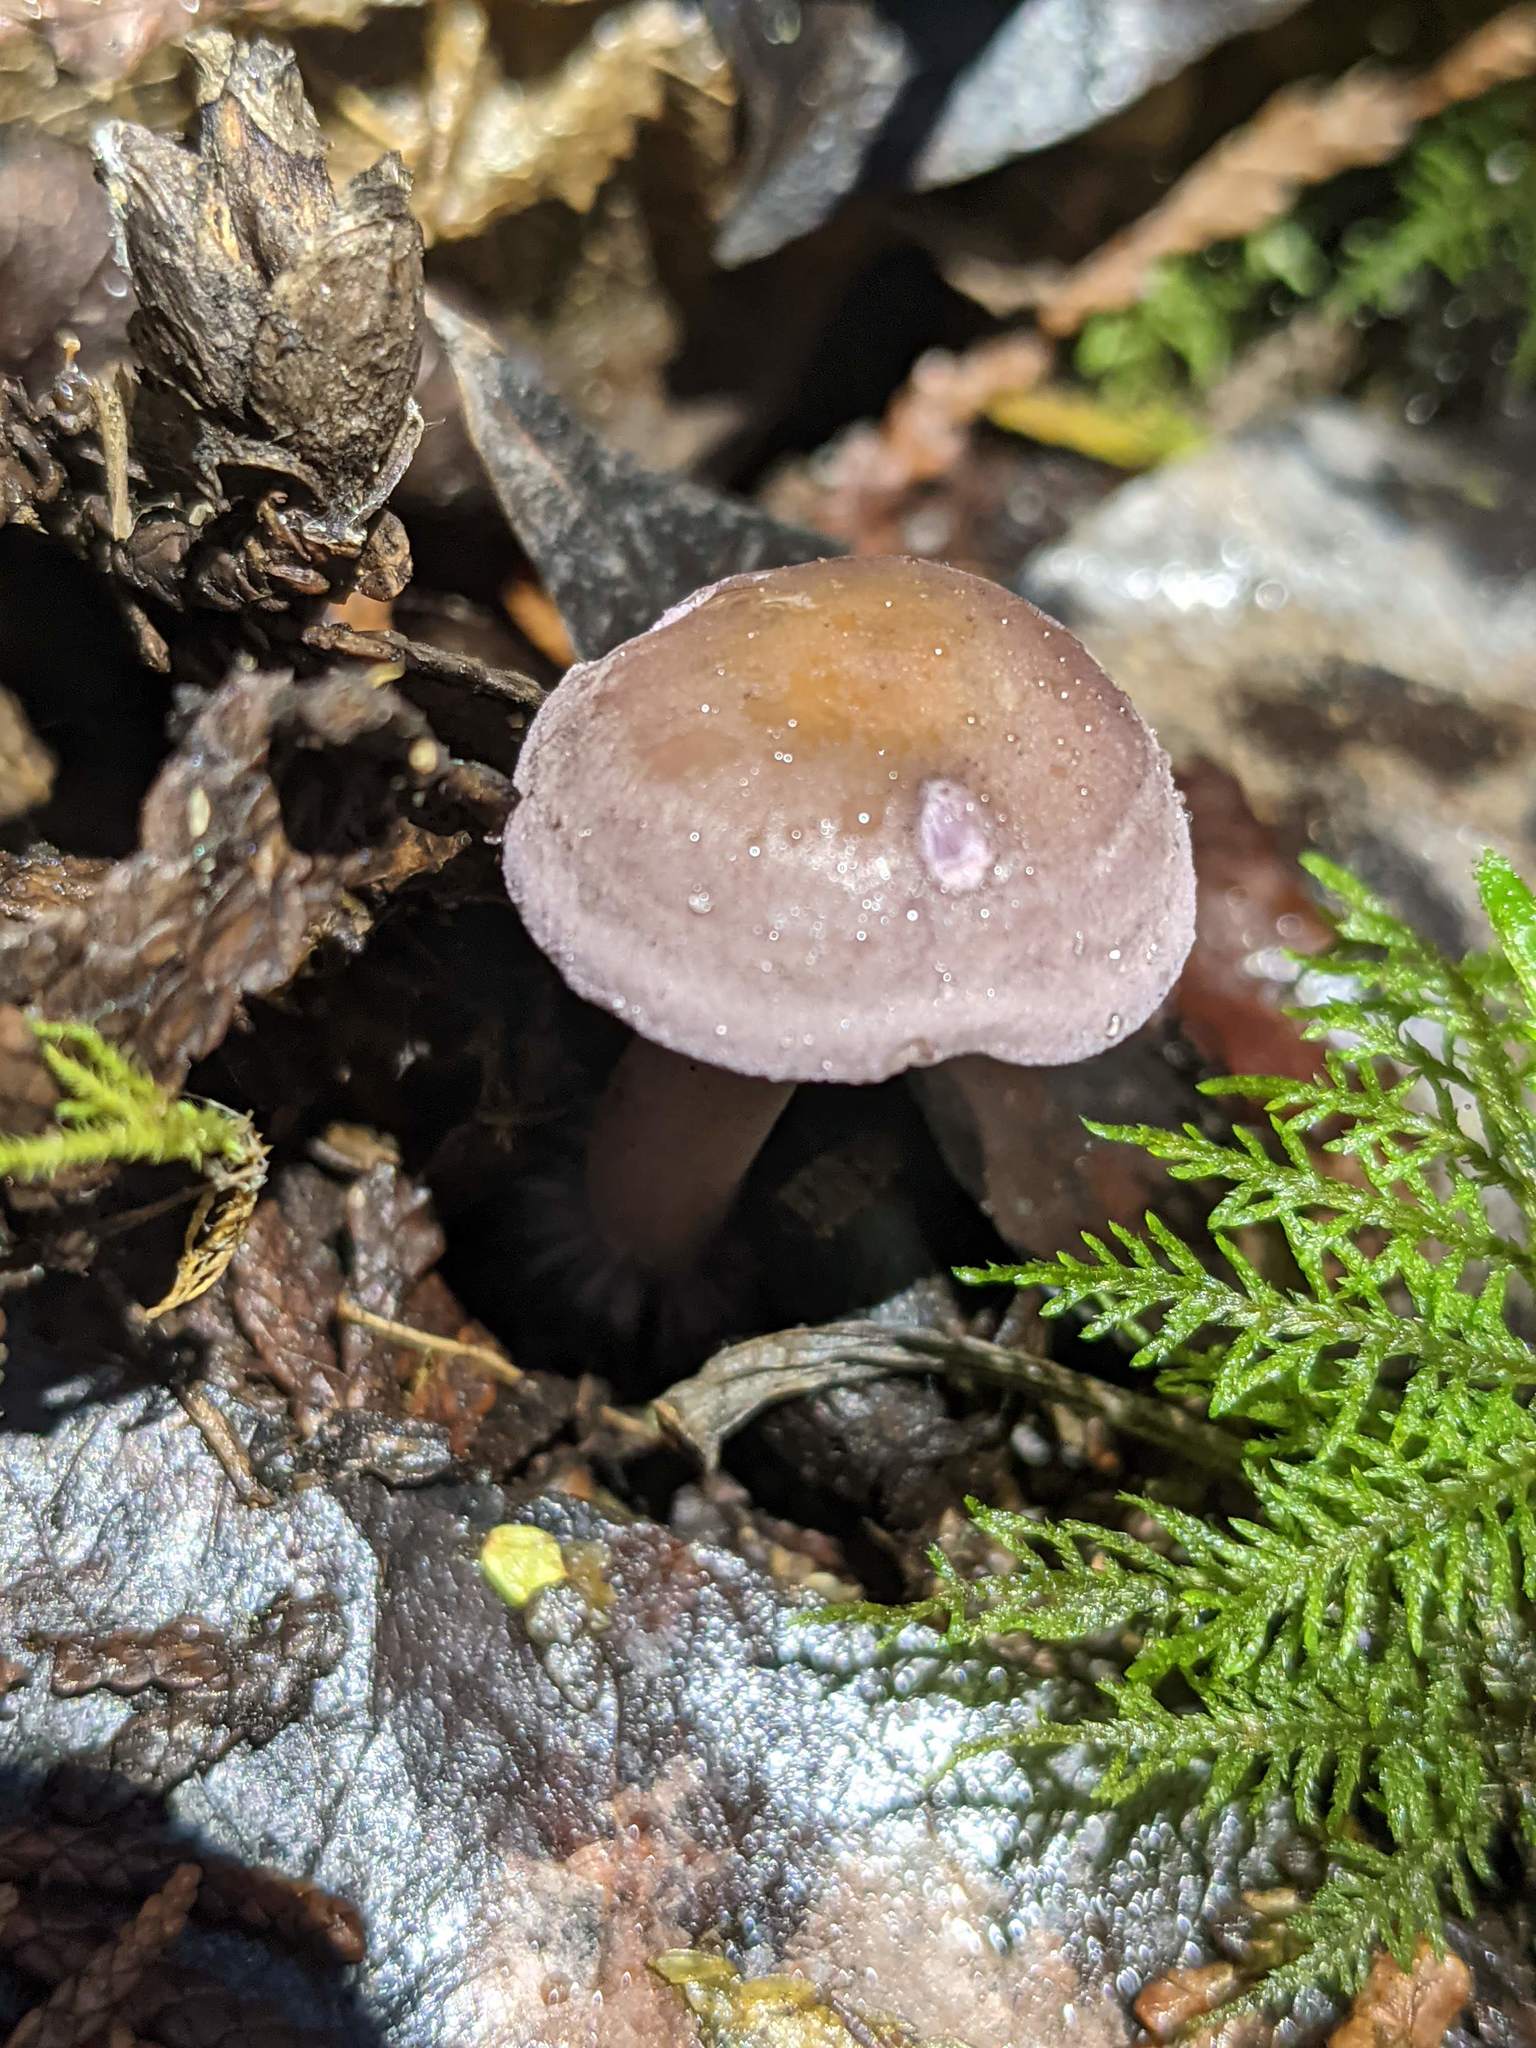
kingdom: Fungi
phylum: Basidiomycota
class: Agaricomycetes
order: Agaricales
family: Marasmiaceae
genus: Baeospora
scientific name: Baeospora myriadophylla
